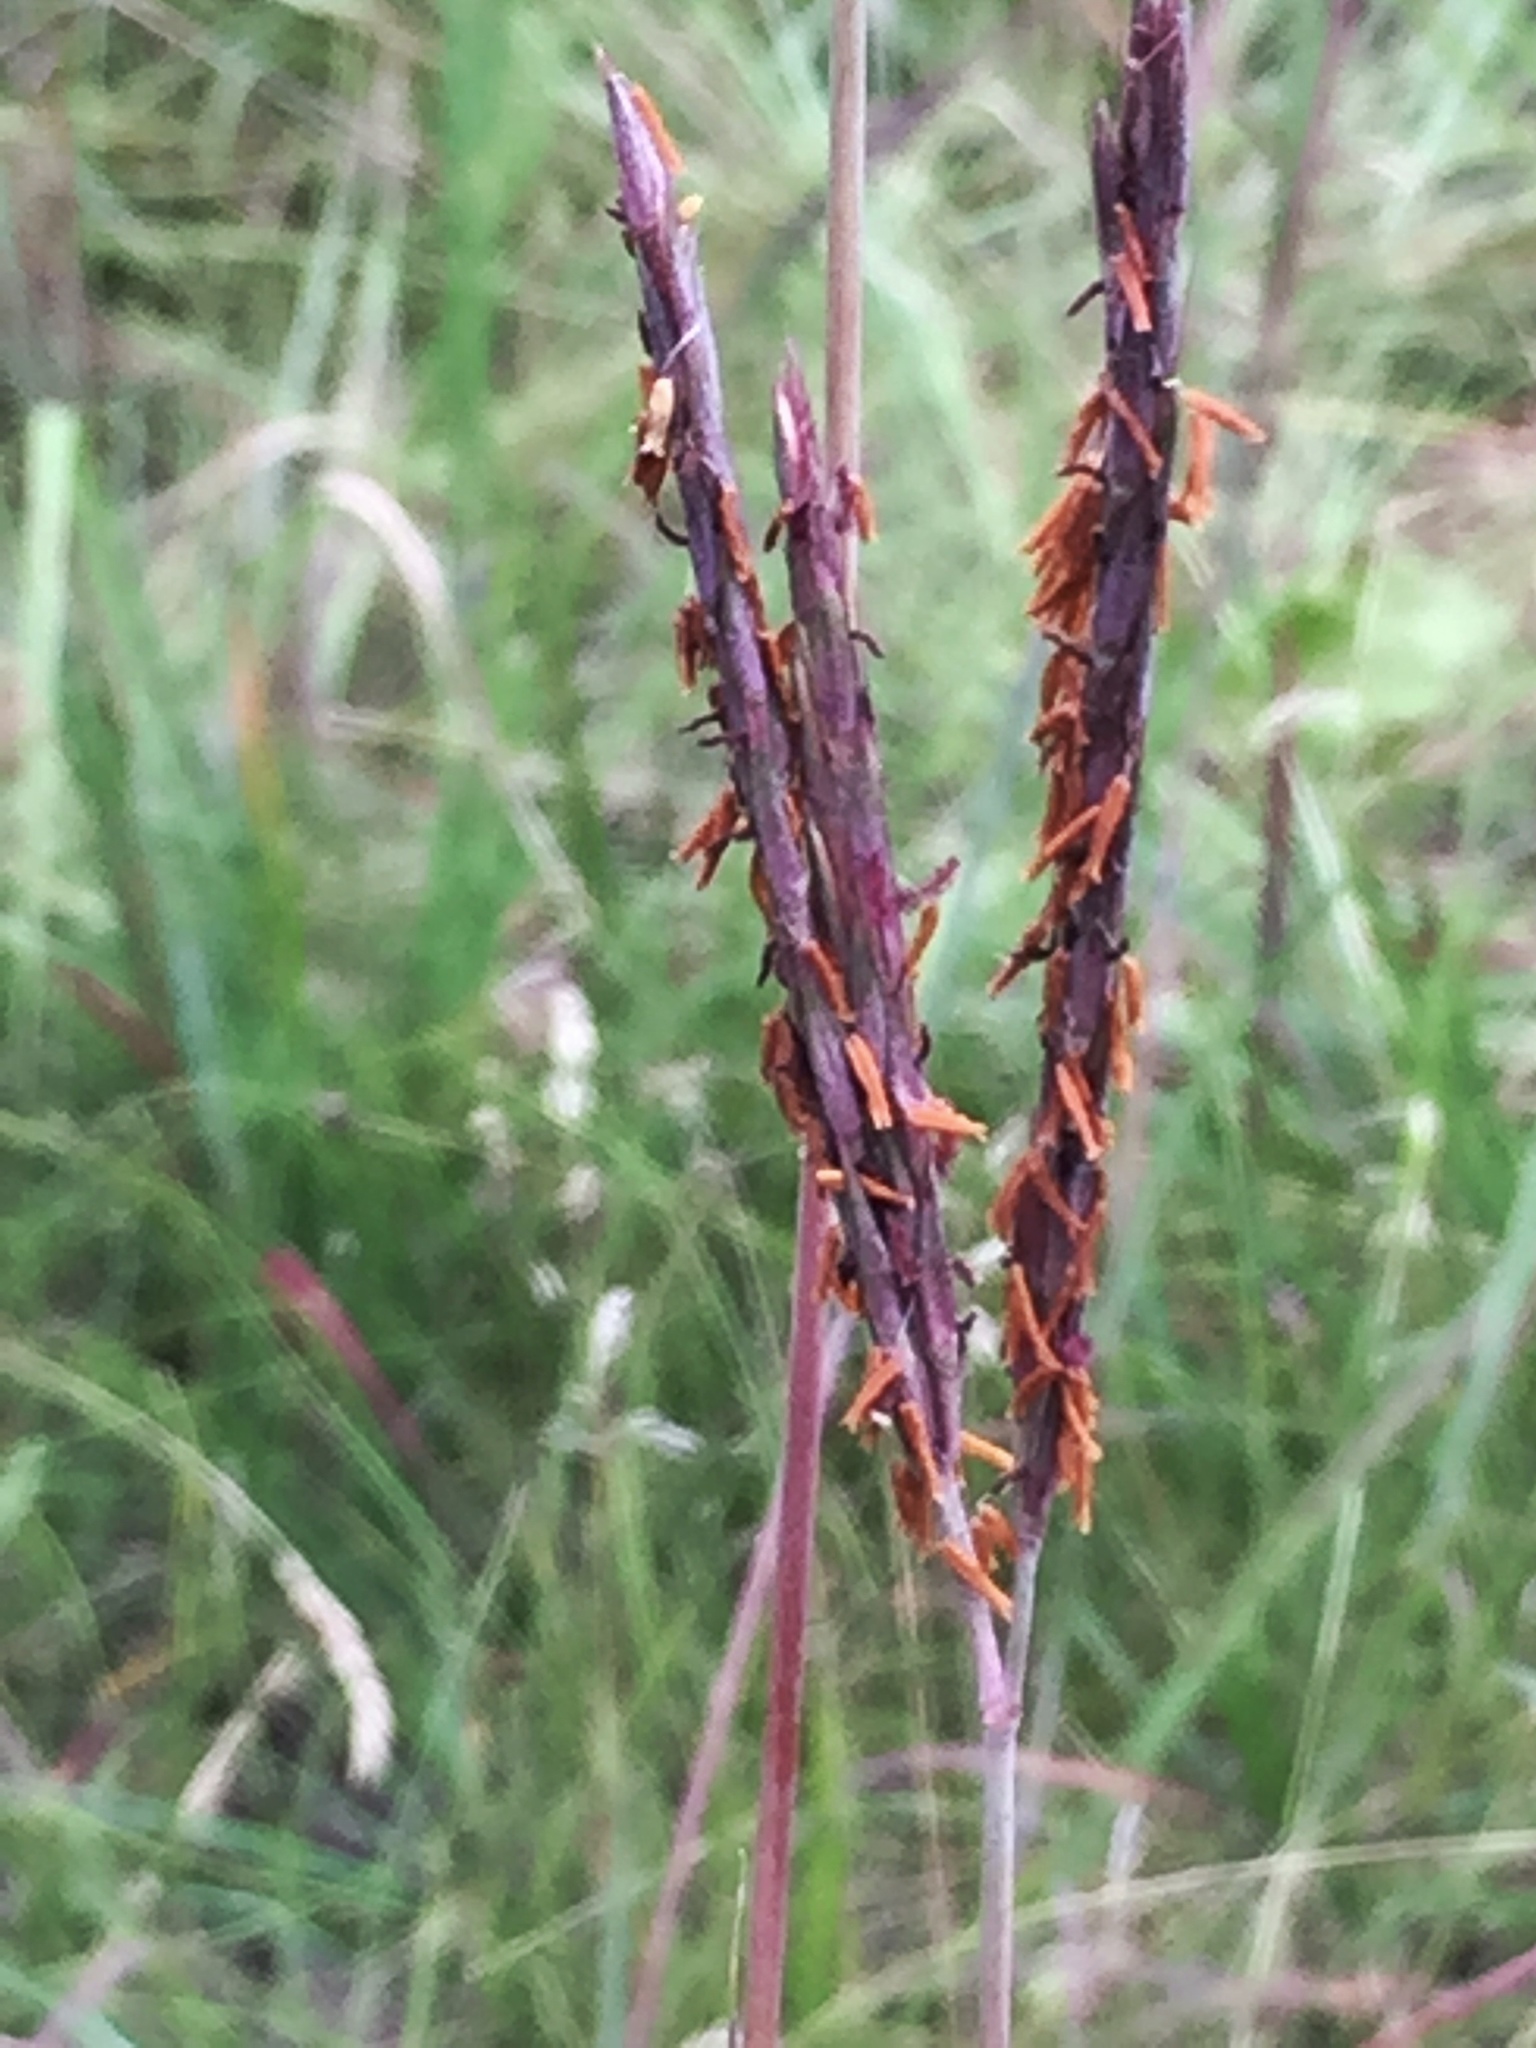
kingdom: Plantae
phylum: Tracheophyta
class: Liliopsida
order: Poales
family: Poaceae
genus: Andropogon
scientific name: Andropogon gerardi
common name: Big bluestem
